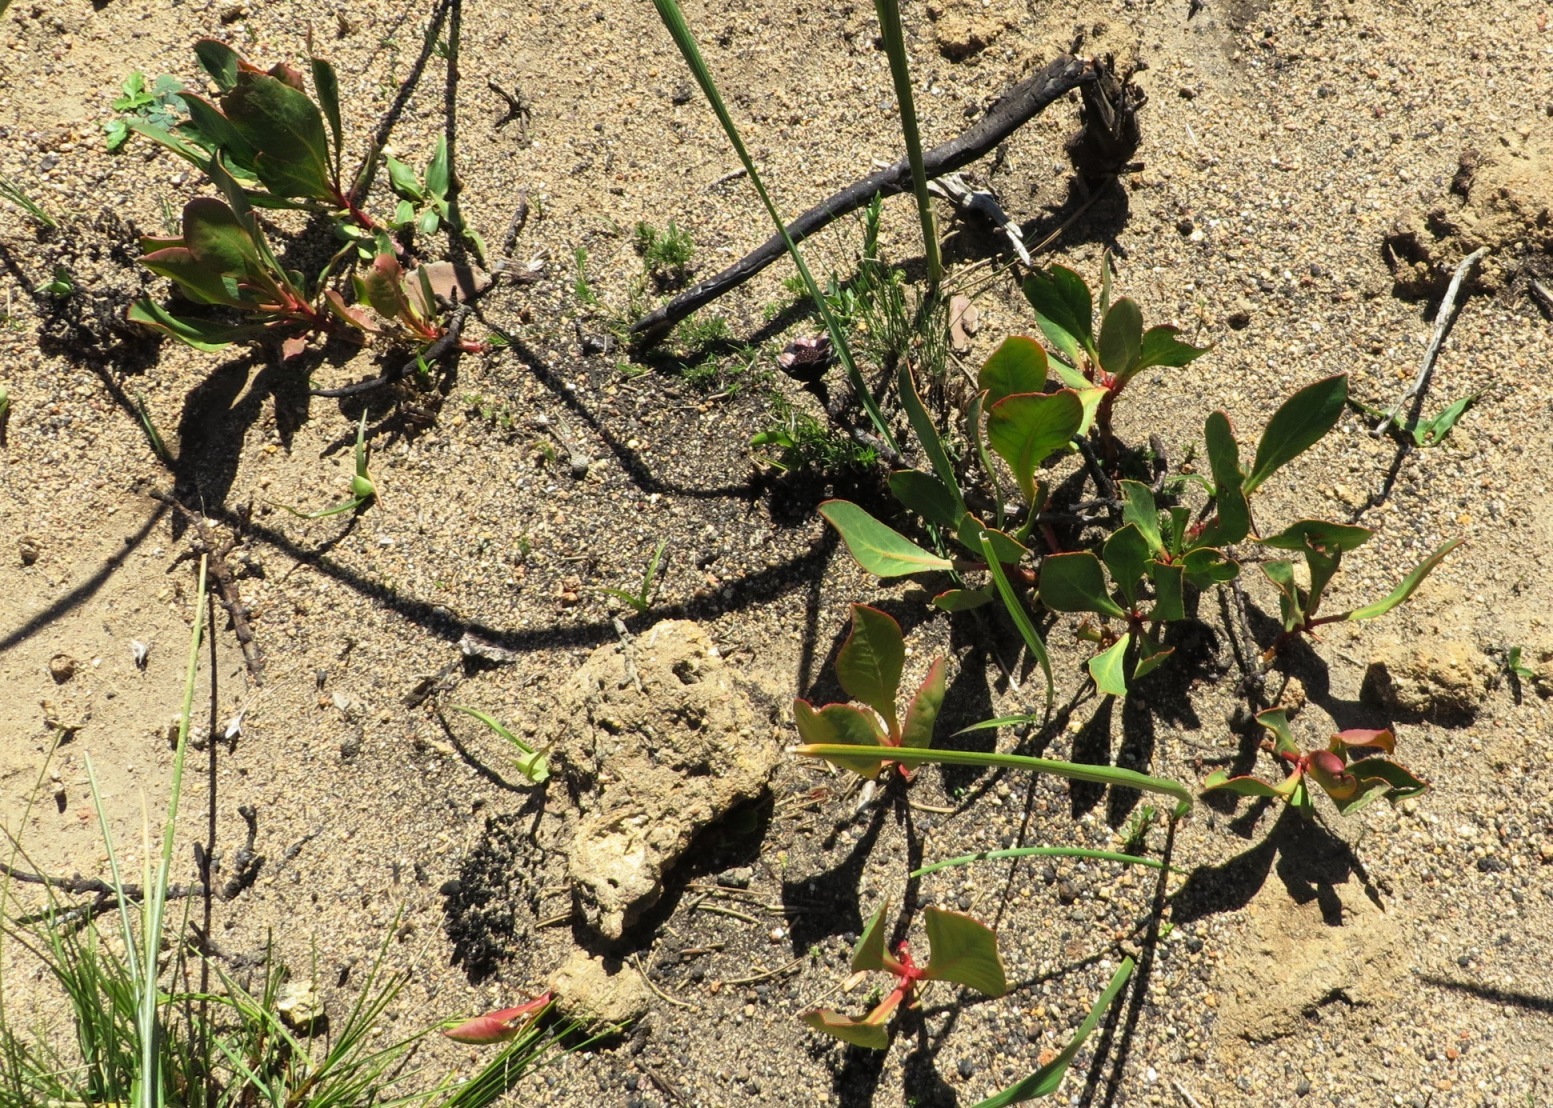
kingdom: Plantae
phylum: Tracheophyta
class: Magnoliopsida
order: Proteales
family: Proteaceae
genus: Protea
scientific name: Protea acaulos
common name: Common ground sugarbush
